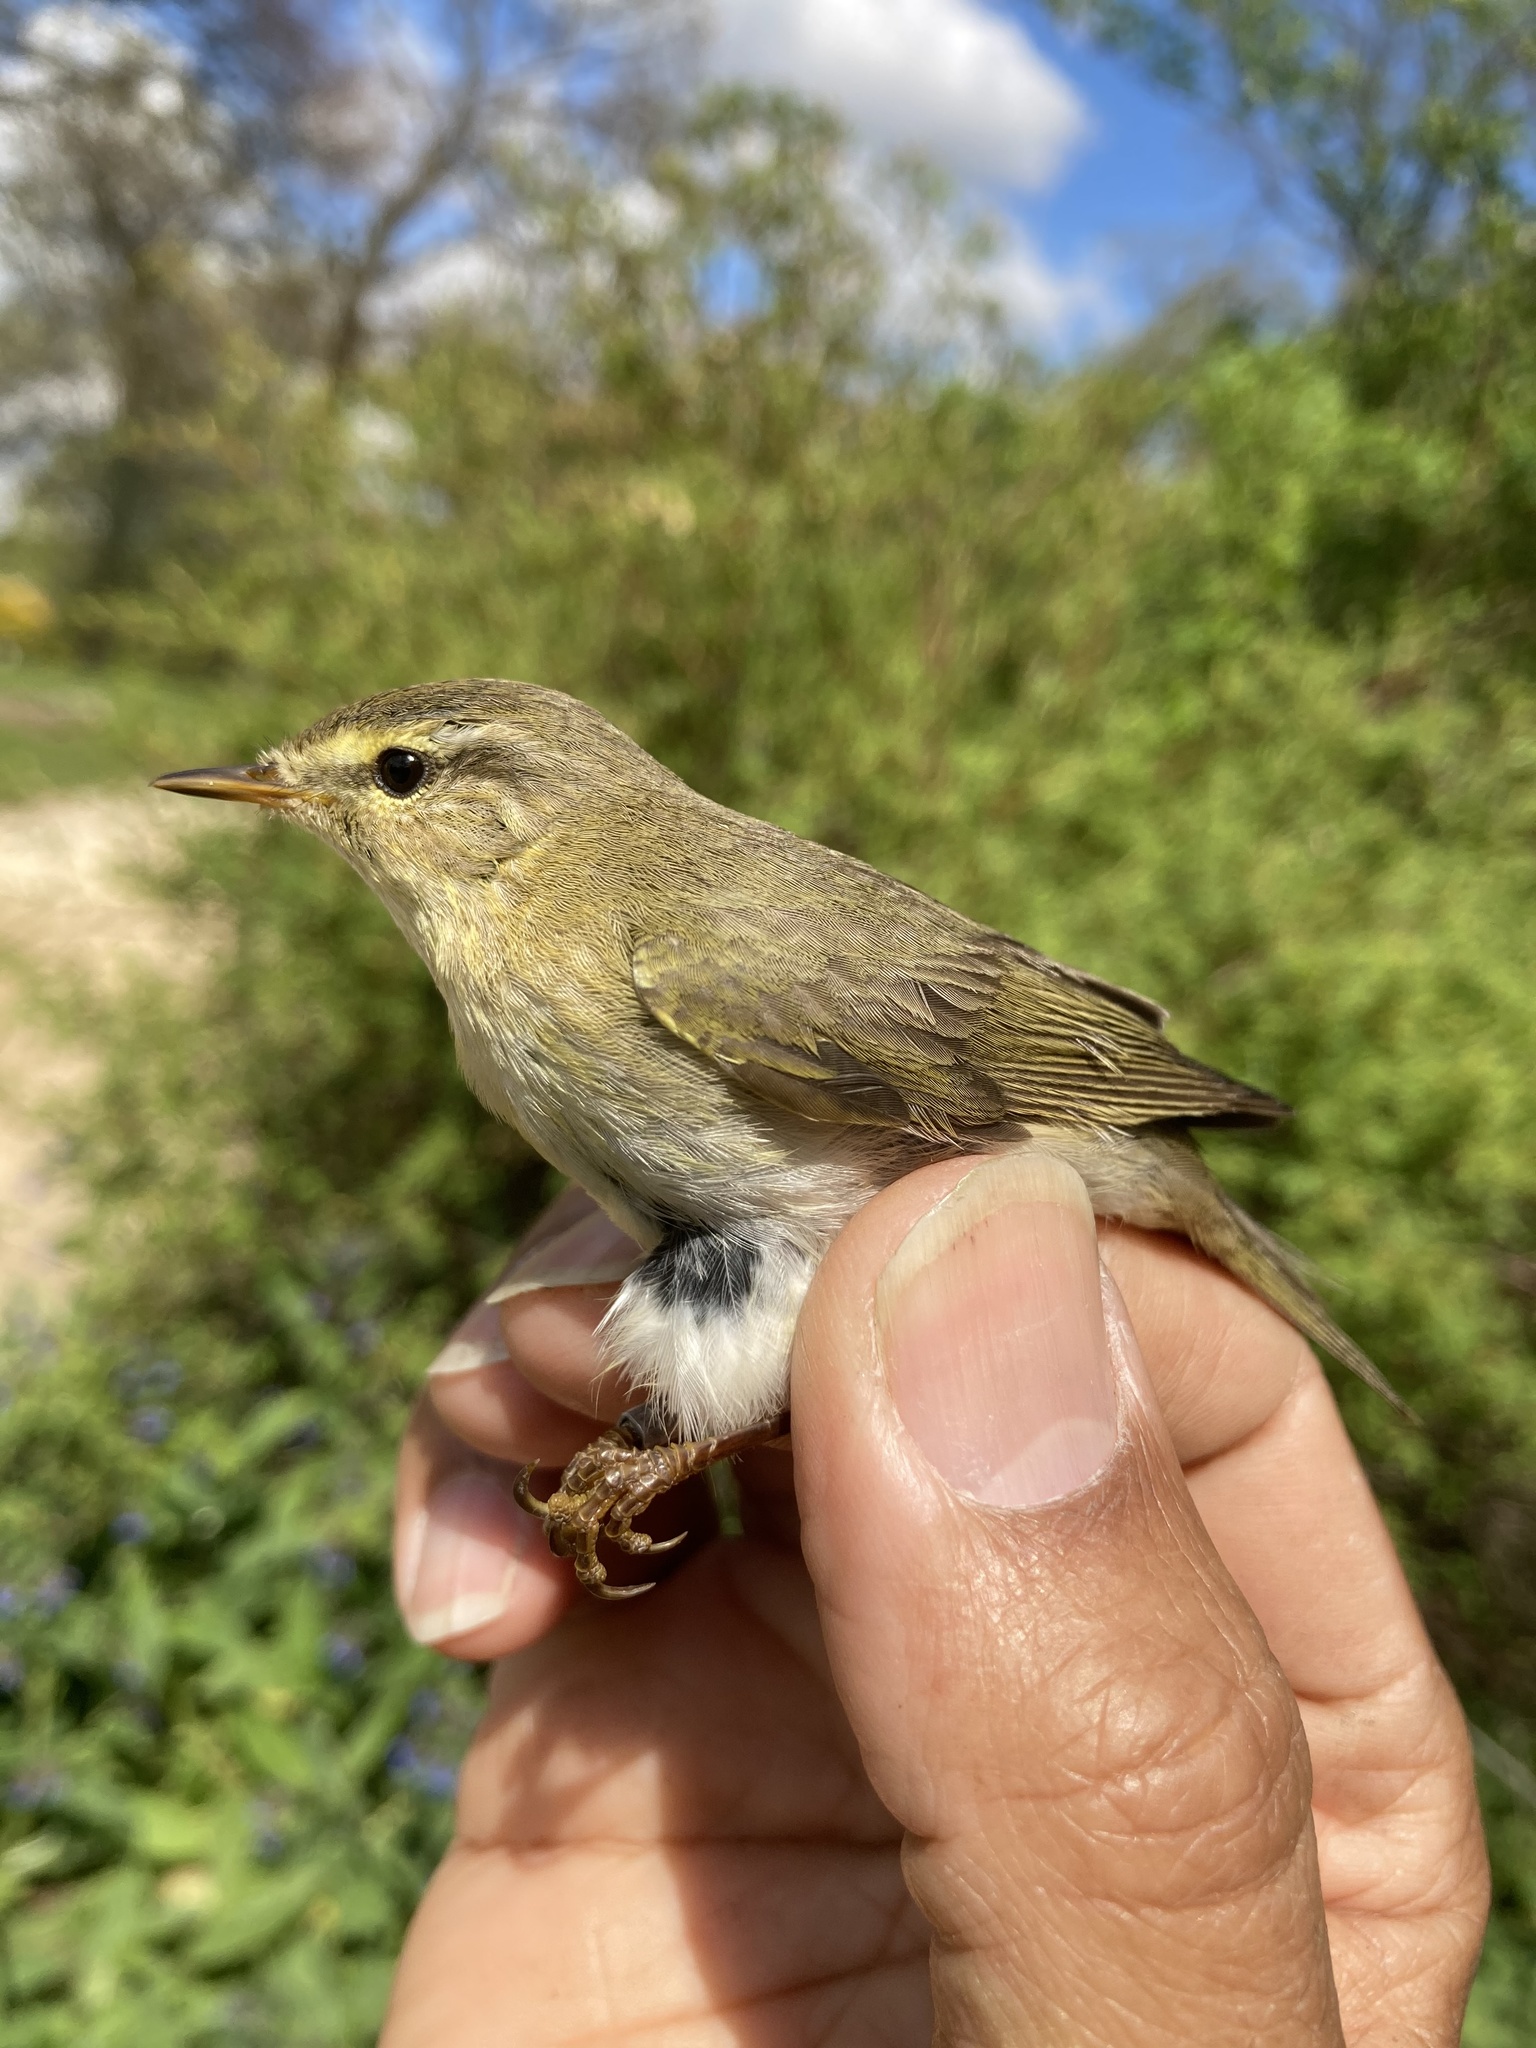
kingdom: Animalia
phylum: Chordata
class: Aves
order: Passeriformes
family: Phylloscopidae
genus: Phylloscopus
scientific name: Phylloscopus trochilus
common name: Willow warbler
